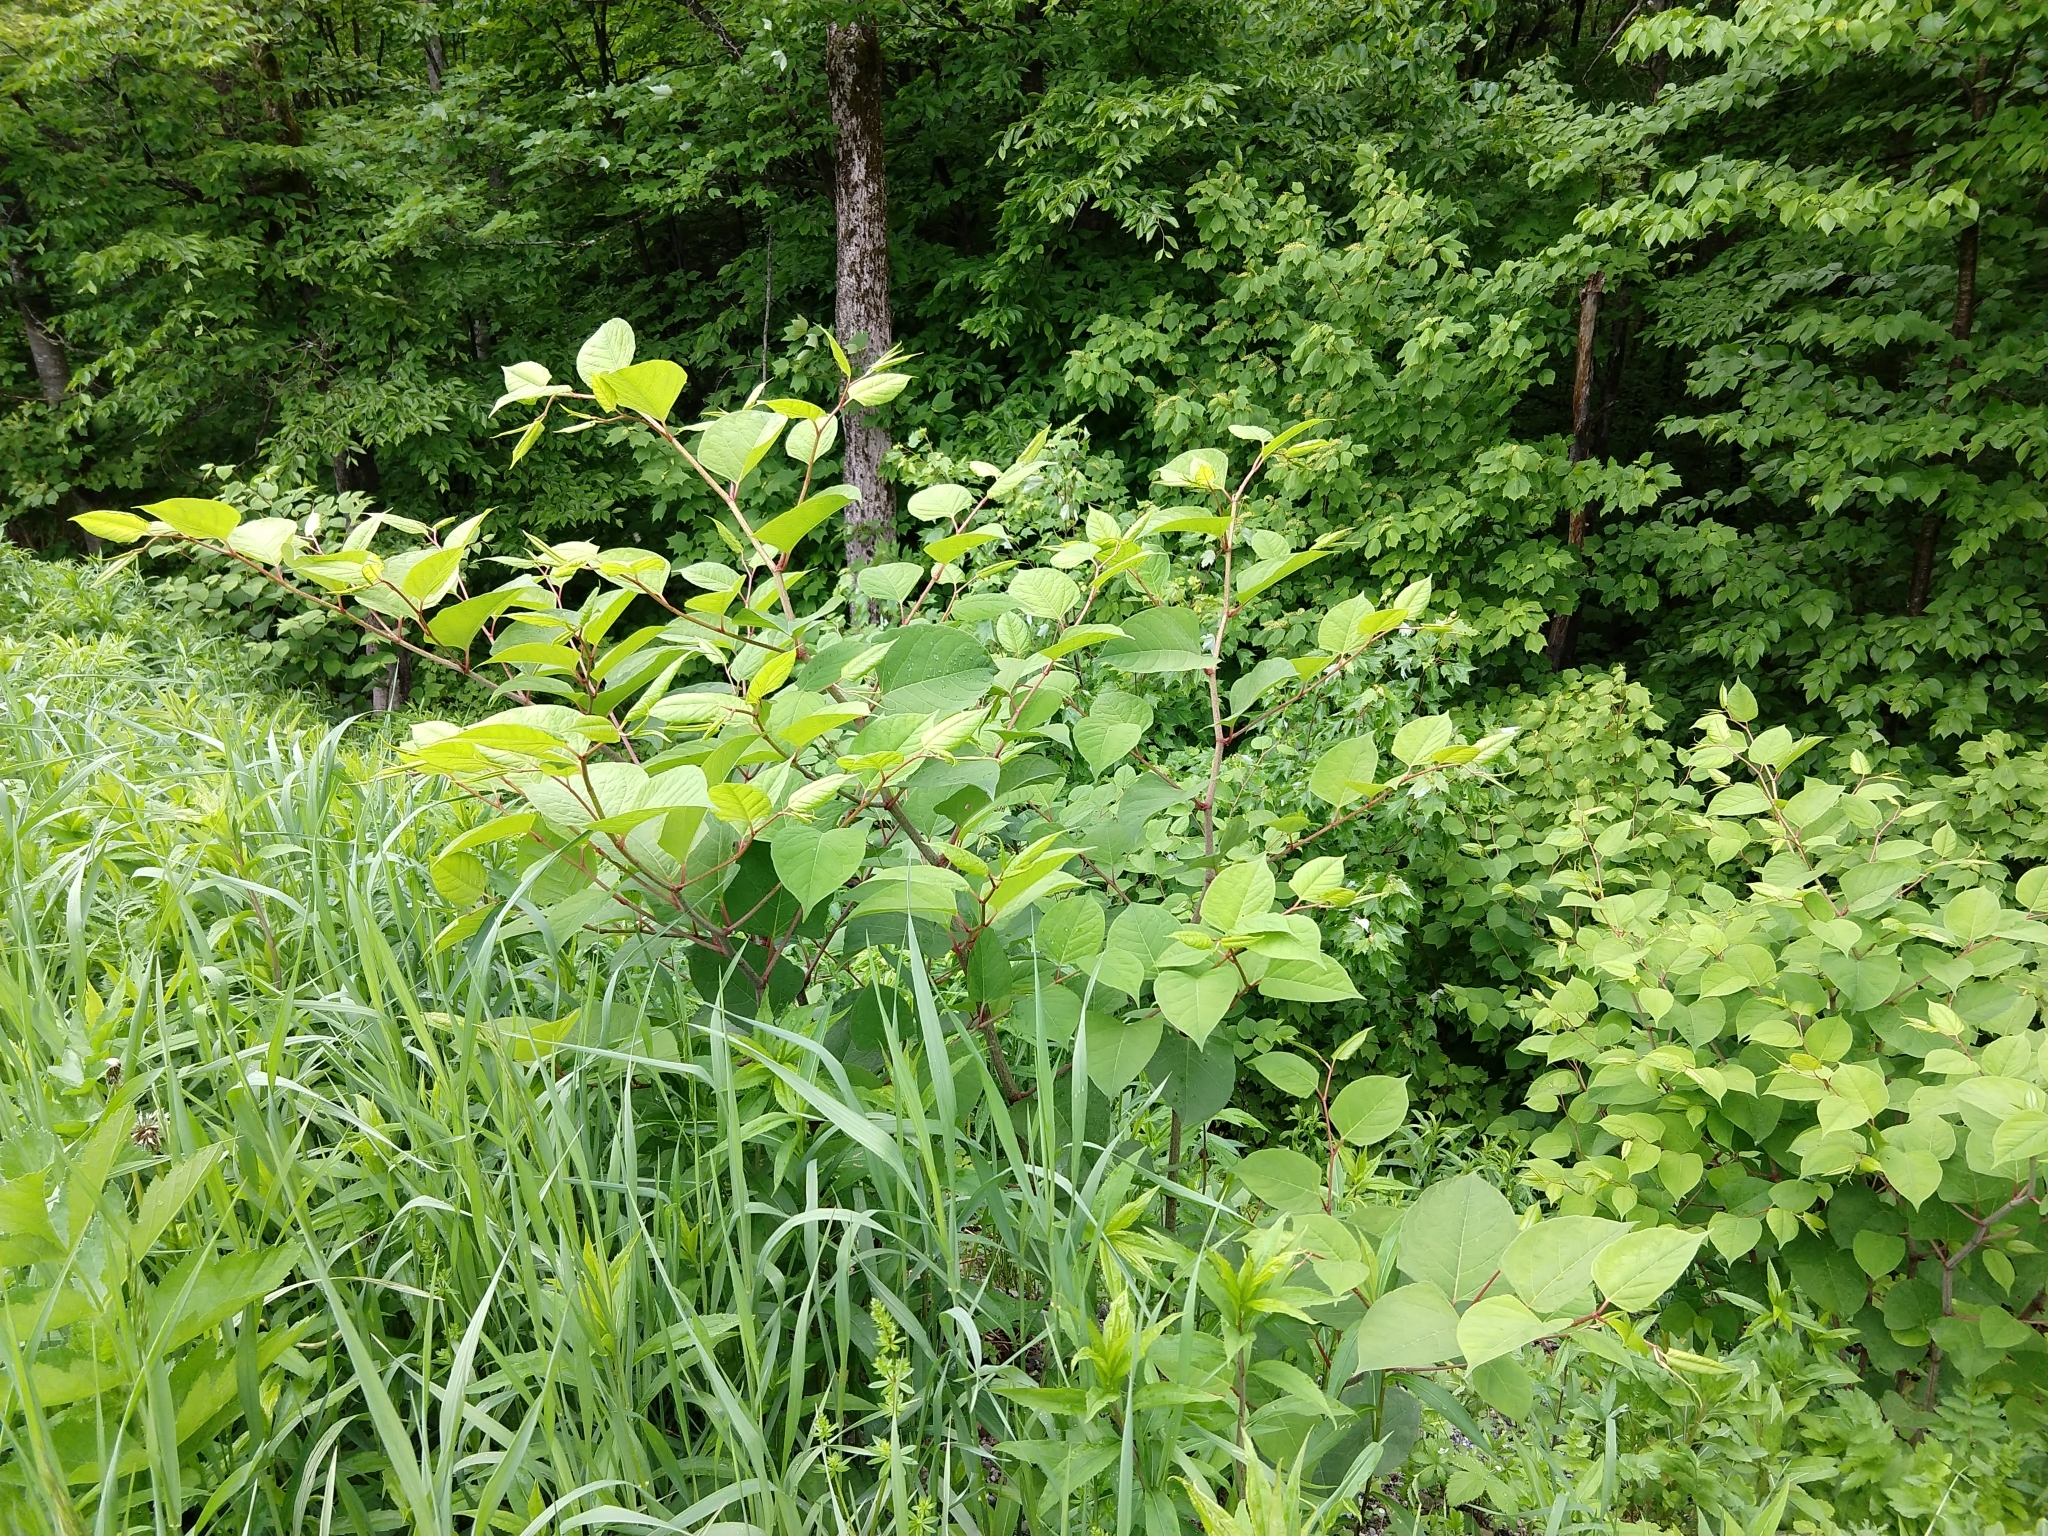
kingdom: Plantae
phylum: Tracheophyta
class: Magnoliopsida
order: Caryophyllales
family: Polygonaceae
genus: Reynoutria
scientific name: Reynoutria japonica
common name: Japanese knotweed
